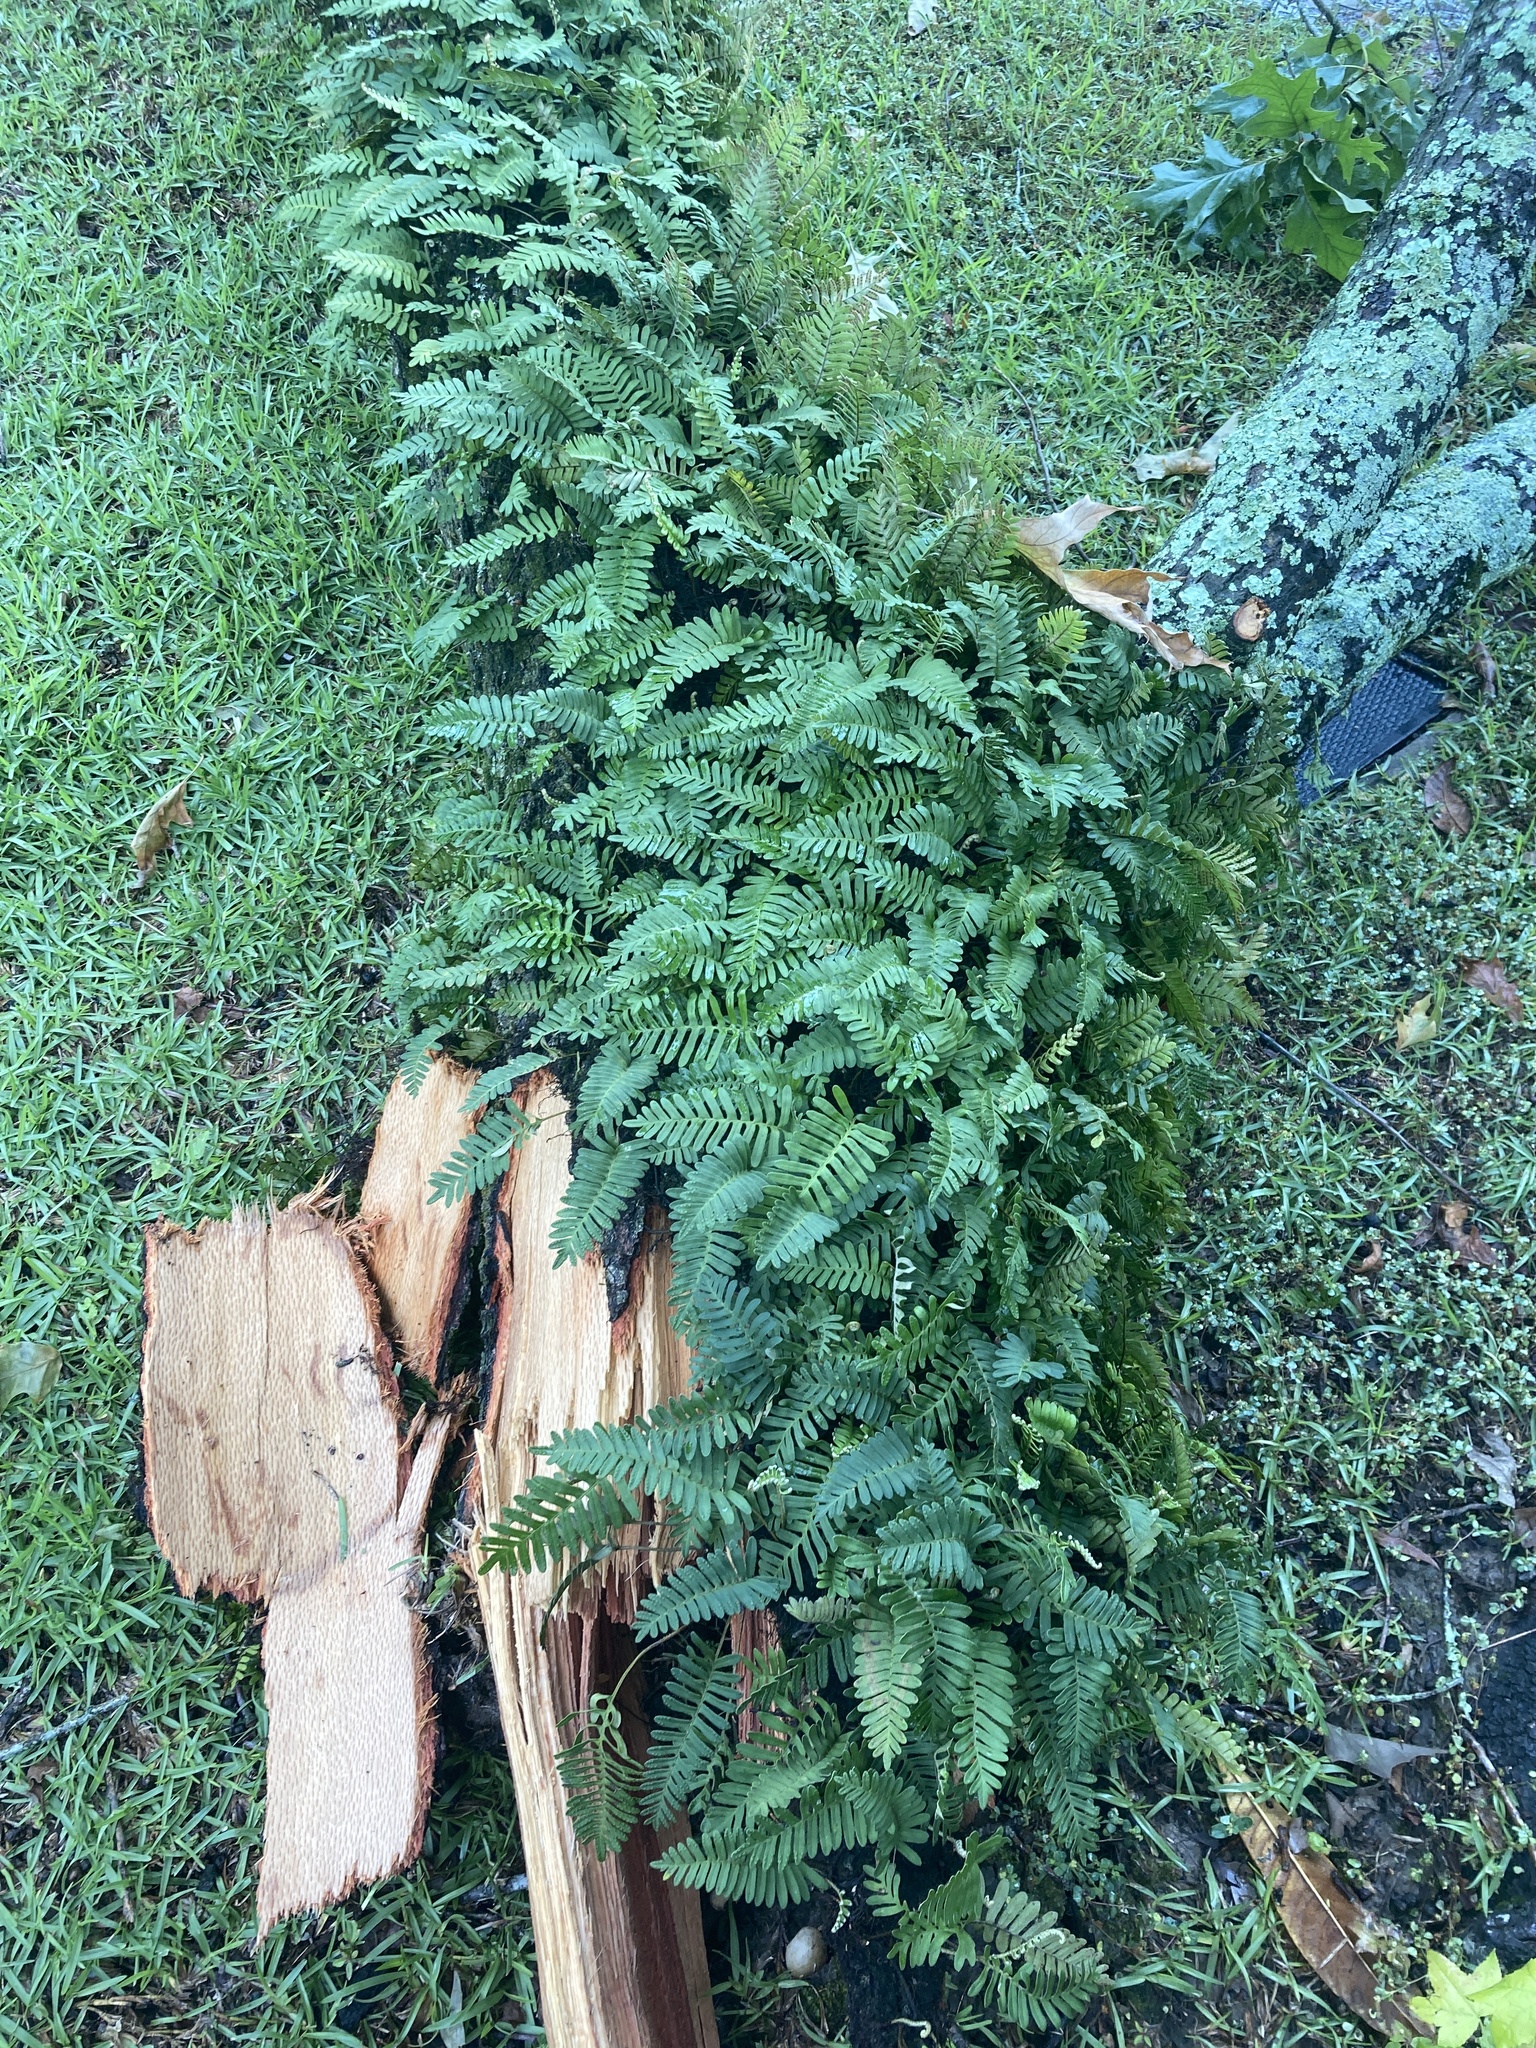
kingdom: Plantae
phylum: Tracheophyta
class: Polypodiopsida
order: Polypodiales
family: Polypodiaceae
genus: Pleopeltis
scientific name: Pleopeltis michauxiana
